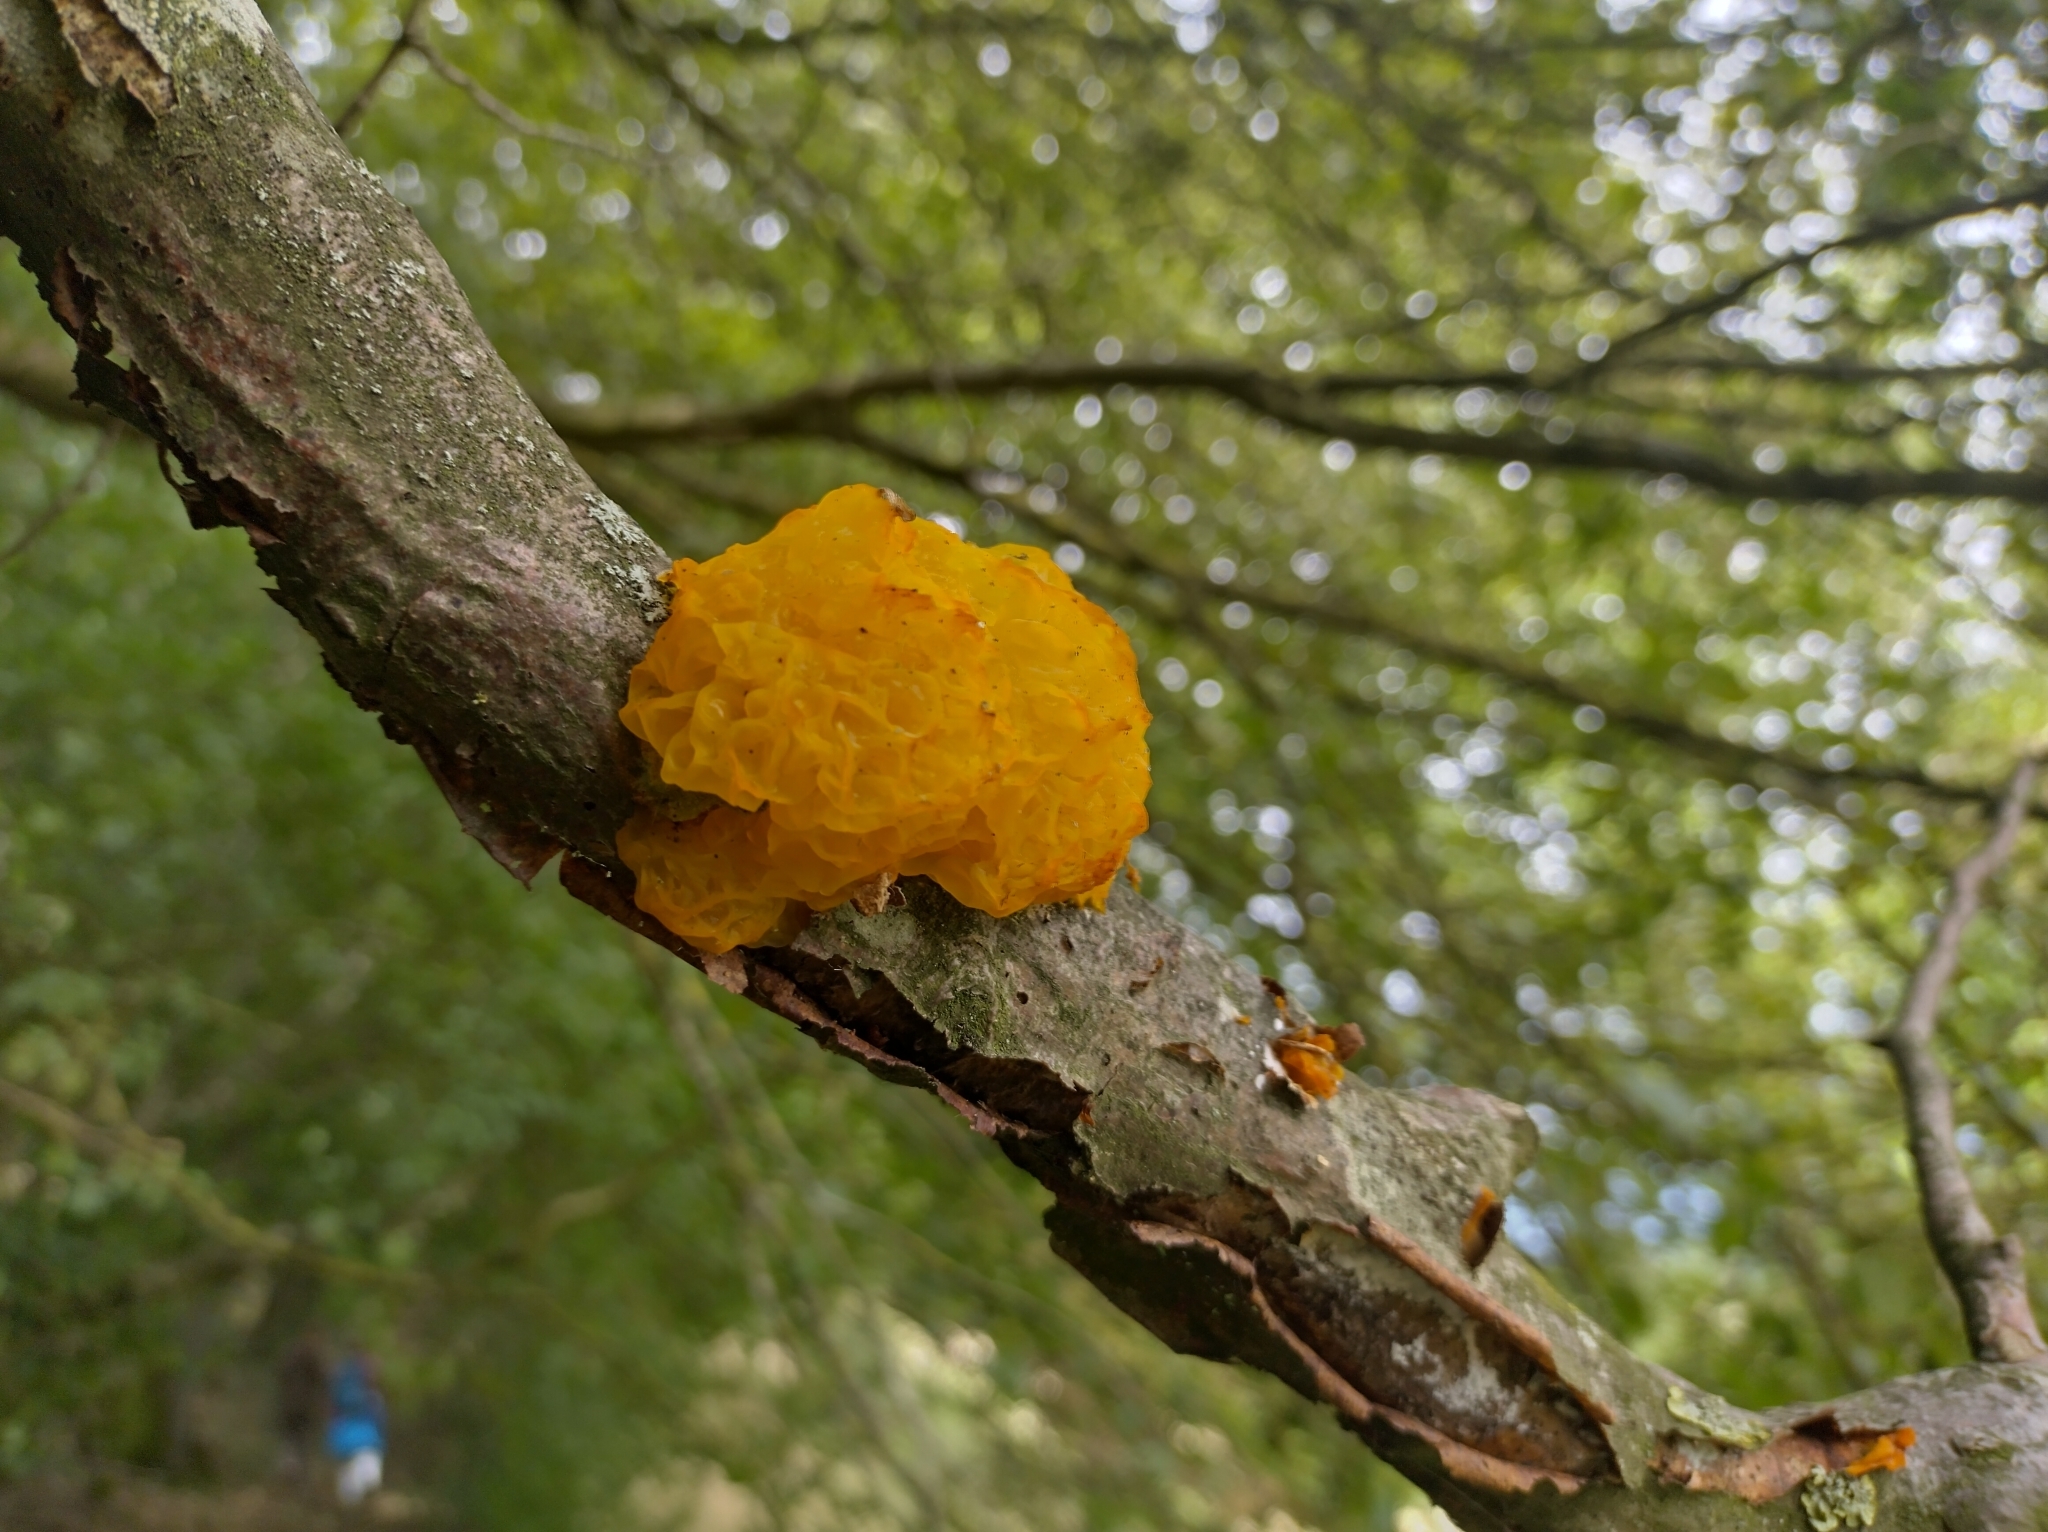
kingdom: Fungi
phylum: Basidiomycota
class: Tremellomycetes
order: Tremellales
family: Tremellaceae
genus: Tremella
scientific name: Tremella mesenterica
